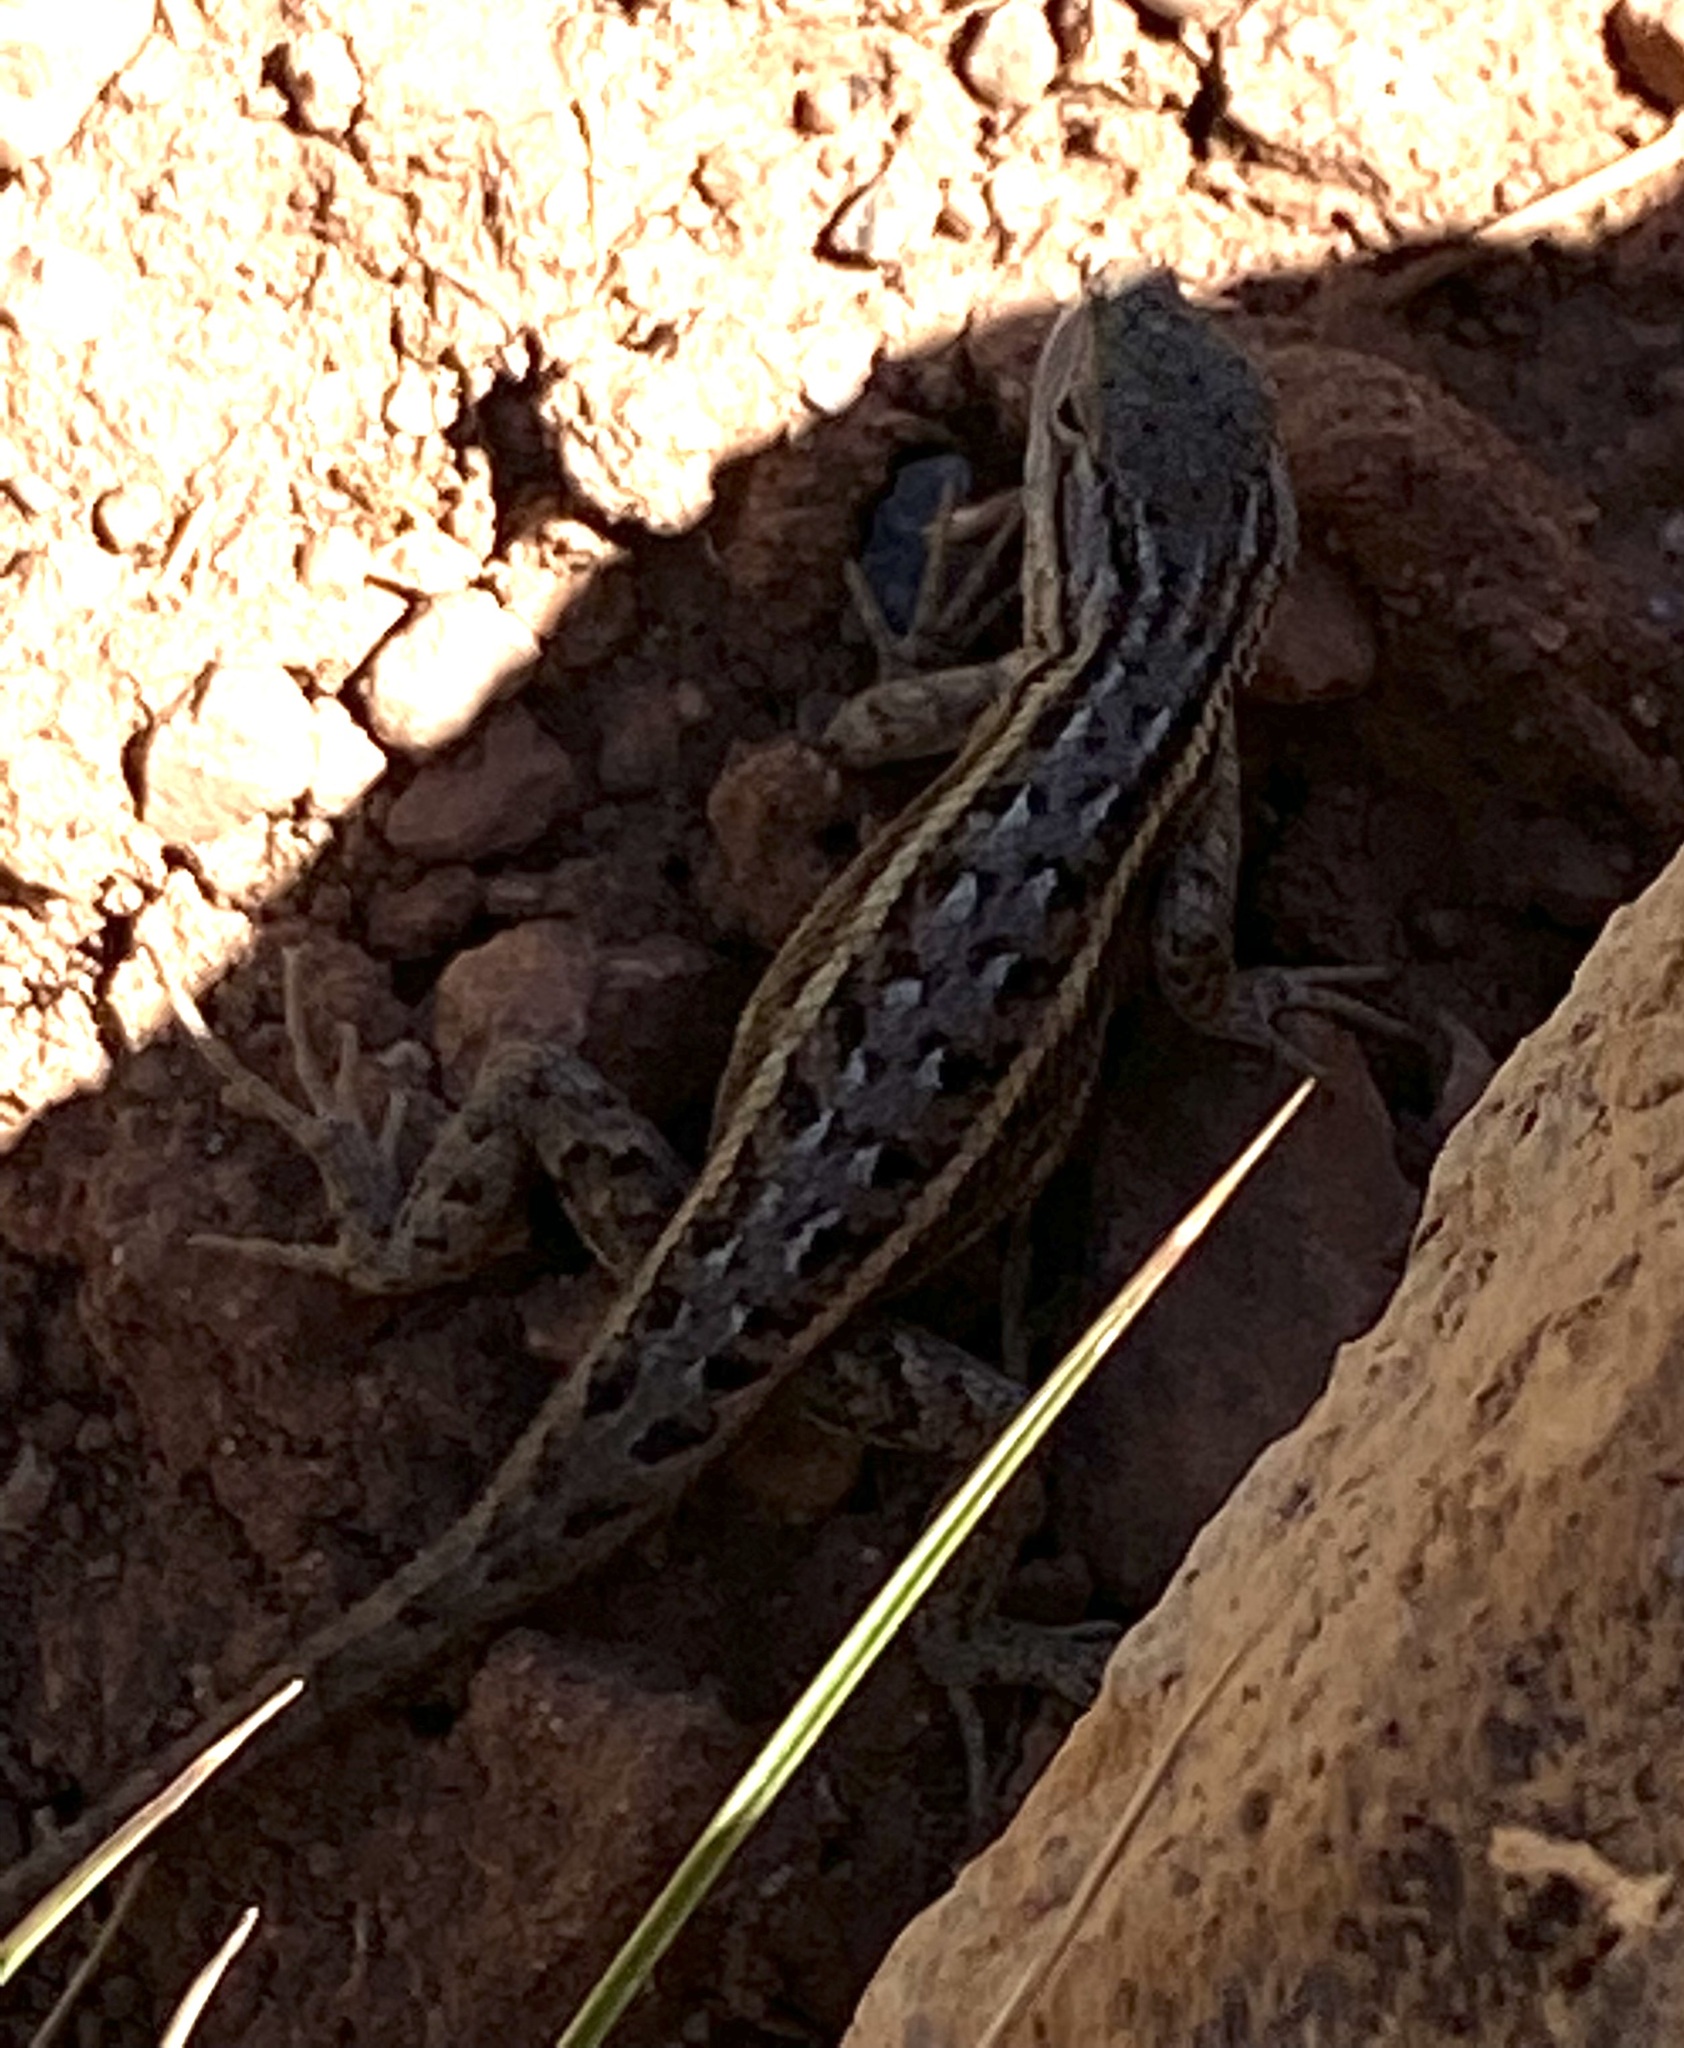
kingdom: Animalia
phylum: Chordata
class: Squamata
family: Phrynosomatidae
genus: Sceloporus
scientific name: Sceloporus tristichus
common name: Plateau fence lizard
